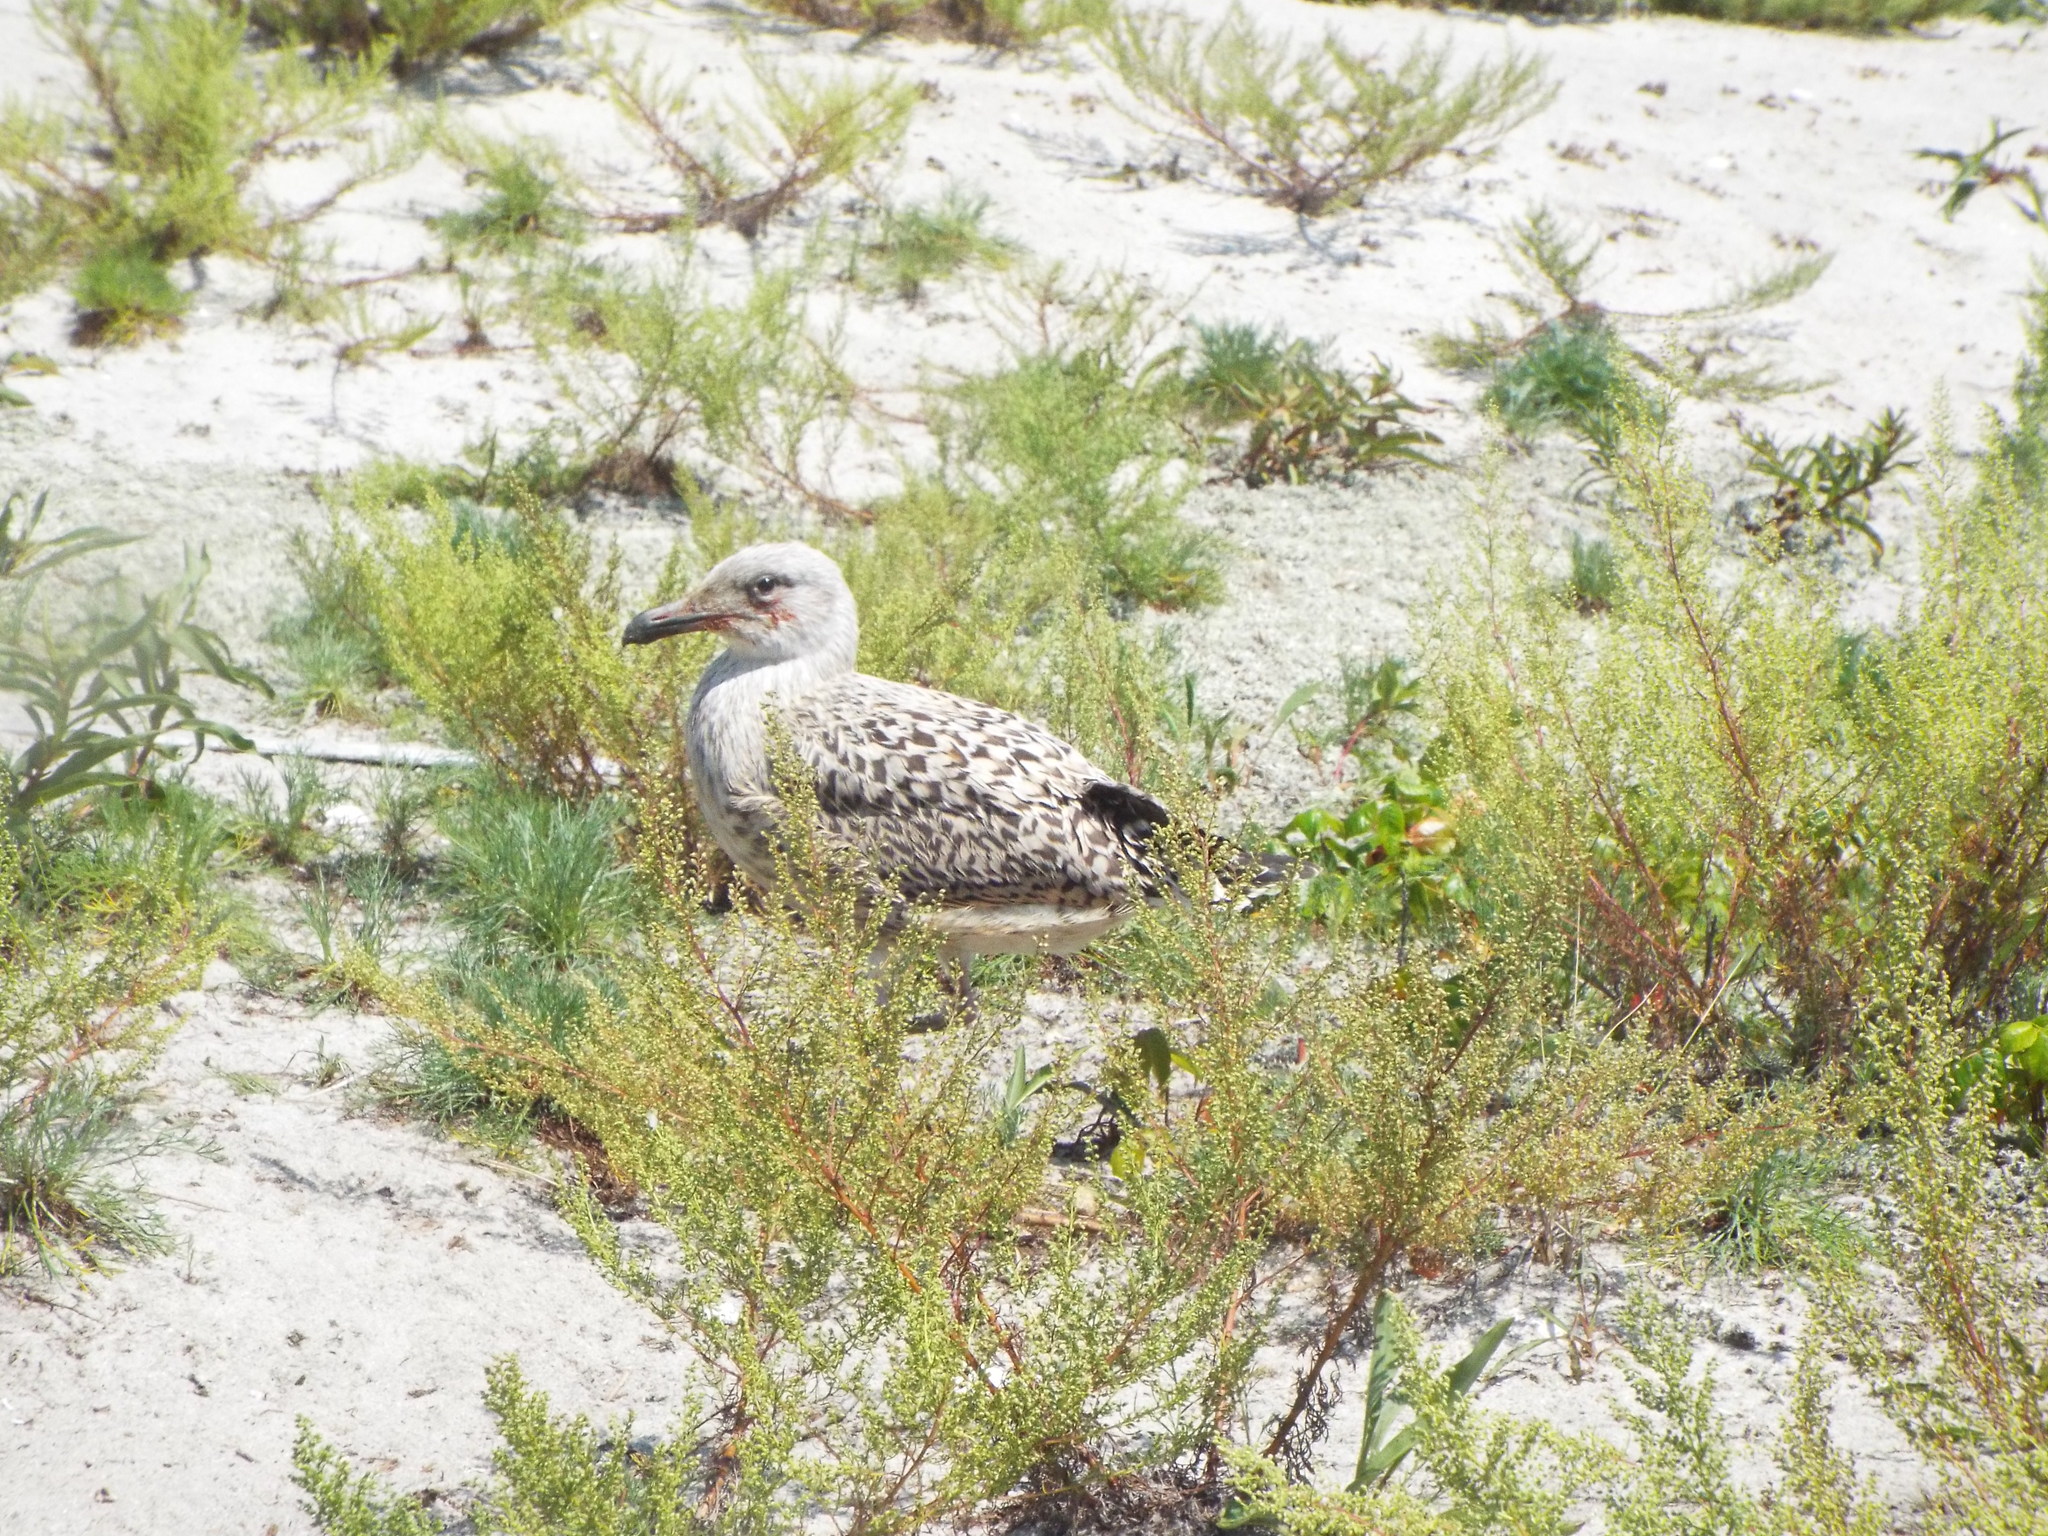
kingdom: Animalia
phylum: Chordata
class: Aves
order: Charadriiformes
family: Laridae
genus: Larus
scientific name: Larus marinus
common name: Great black-backed gull
